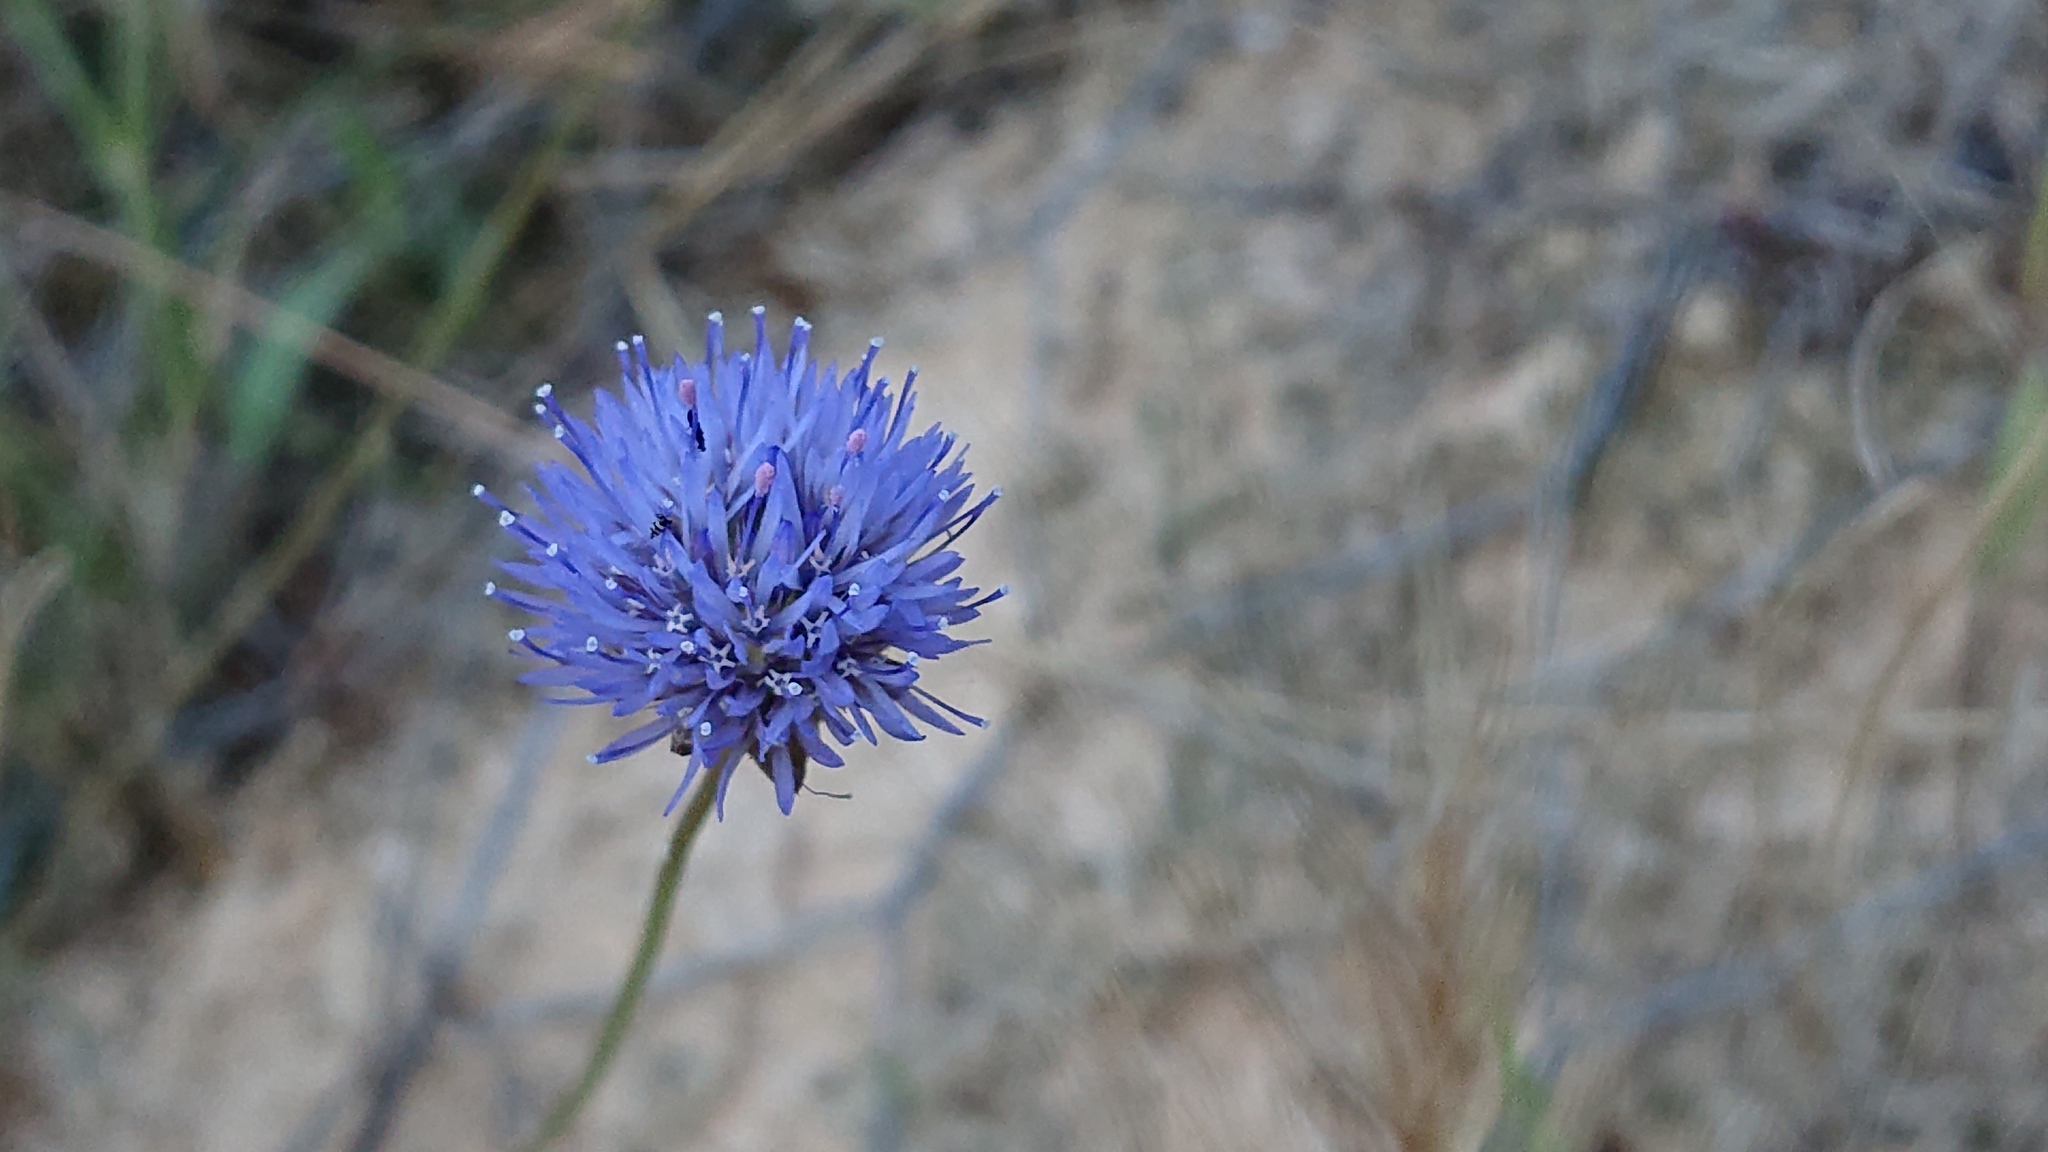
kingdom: Plantae
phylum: Tracheophyta
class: Magnoliopsida
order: Asterales
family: Campanulaceae
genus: Jasione
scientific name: Jasione montana
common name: Sheep's-bit
